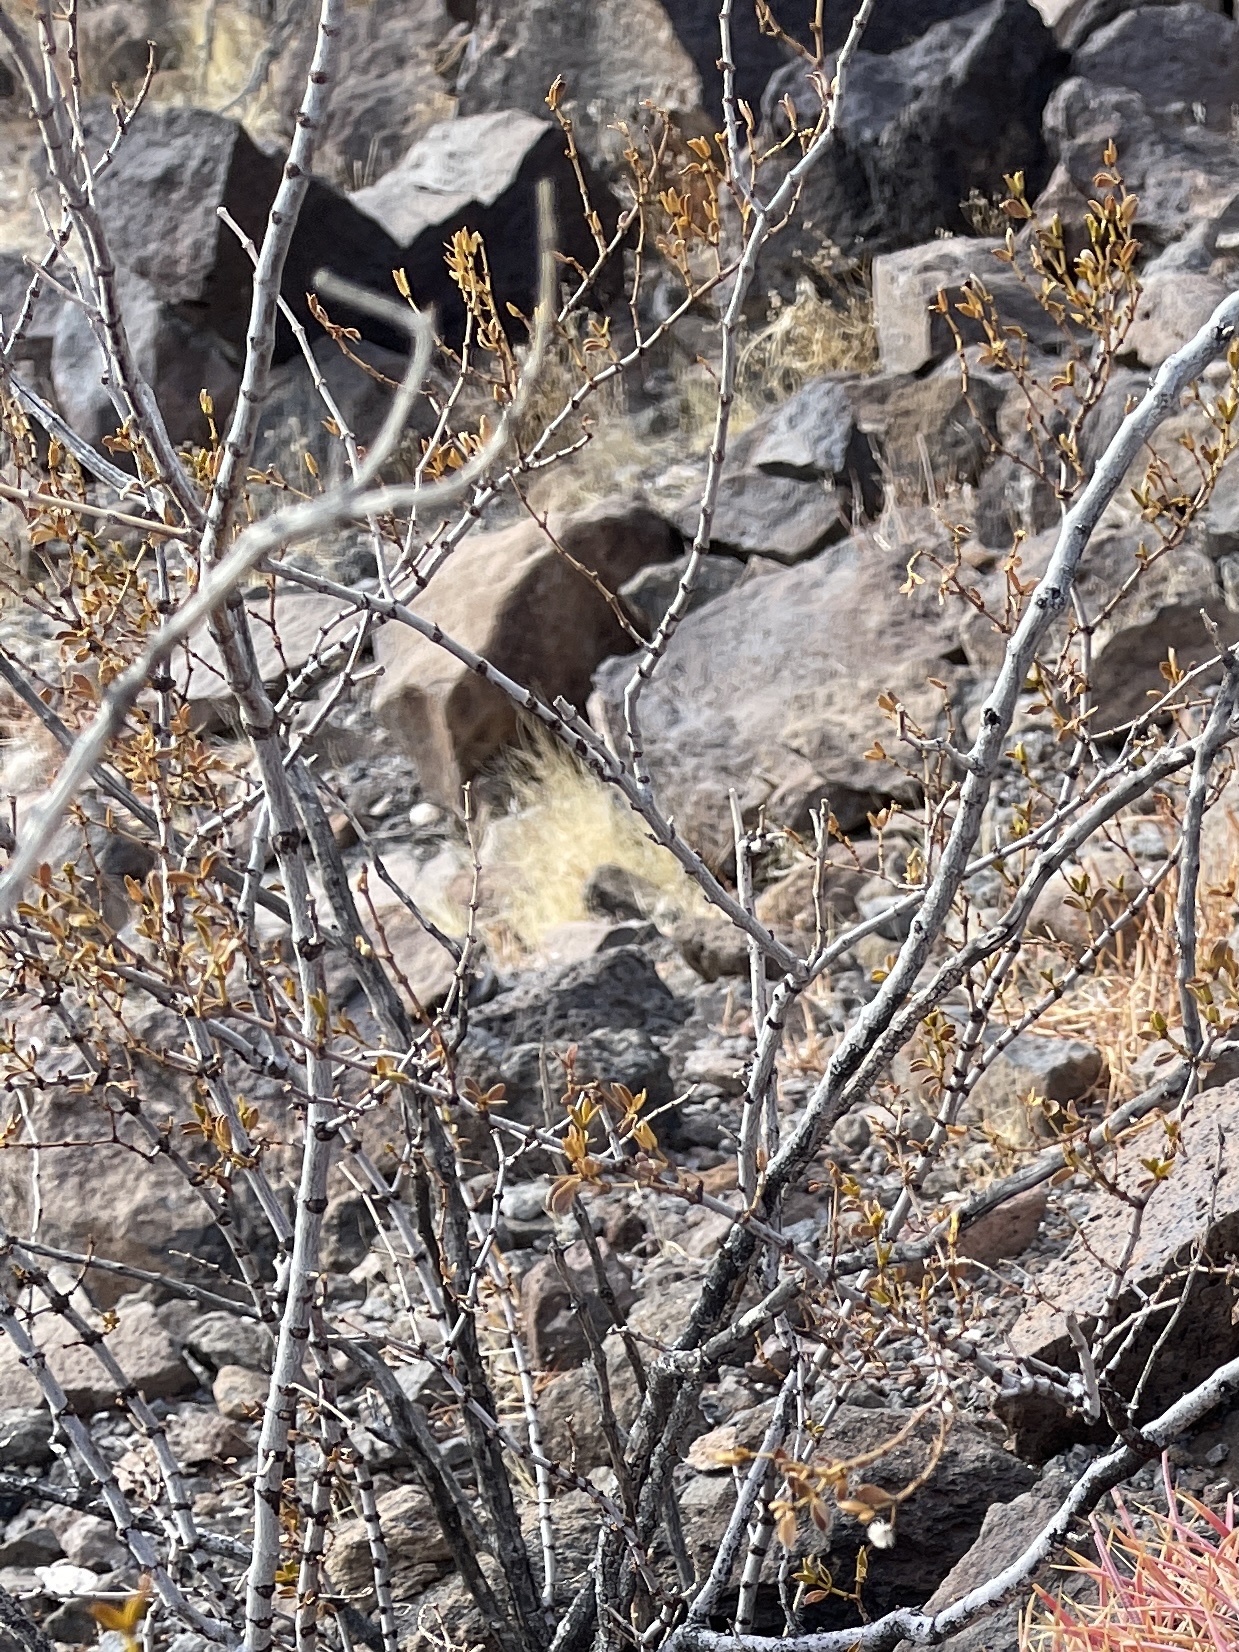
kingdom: Plantae
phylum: Tracheophyta
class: Magnoliopsida
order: Zygophyllales
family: Zygophyllaceae
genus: Larrea
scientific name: Larrea tridentata
